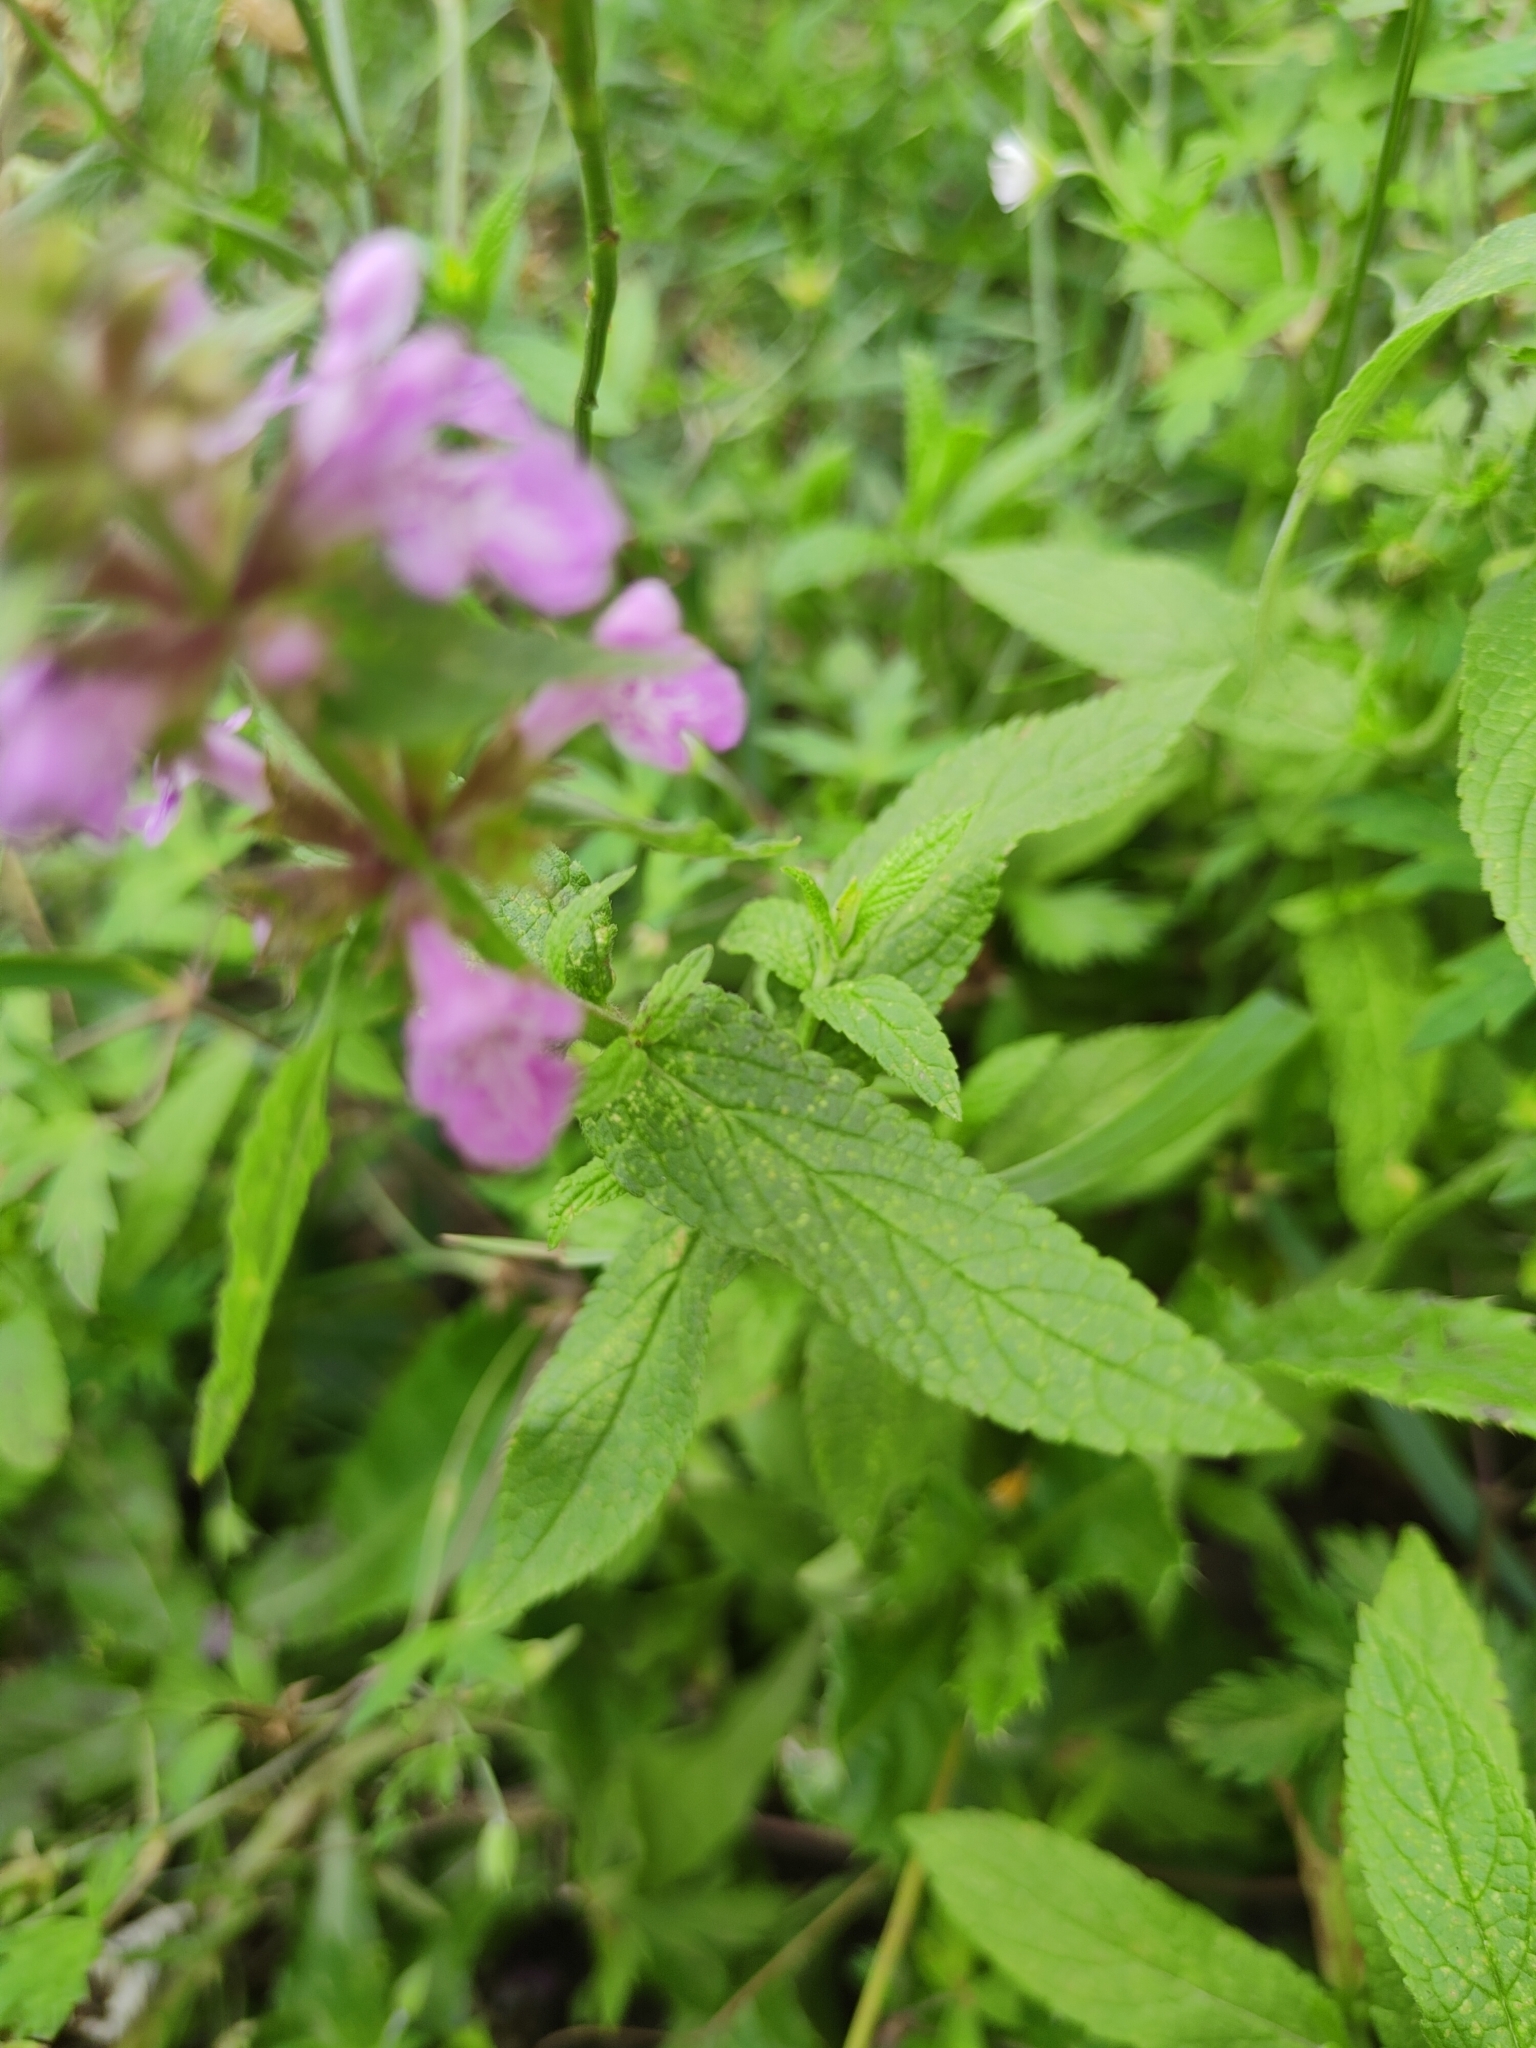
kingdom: Plantae
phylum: Tracheophyta
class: Magnoliopsida
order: Lamiales
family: Lamiaceae
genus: Stachys
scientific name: Stachys palustris
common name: Marsh woundwort
